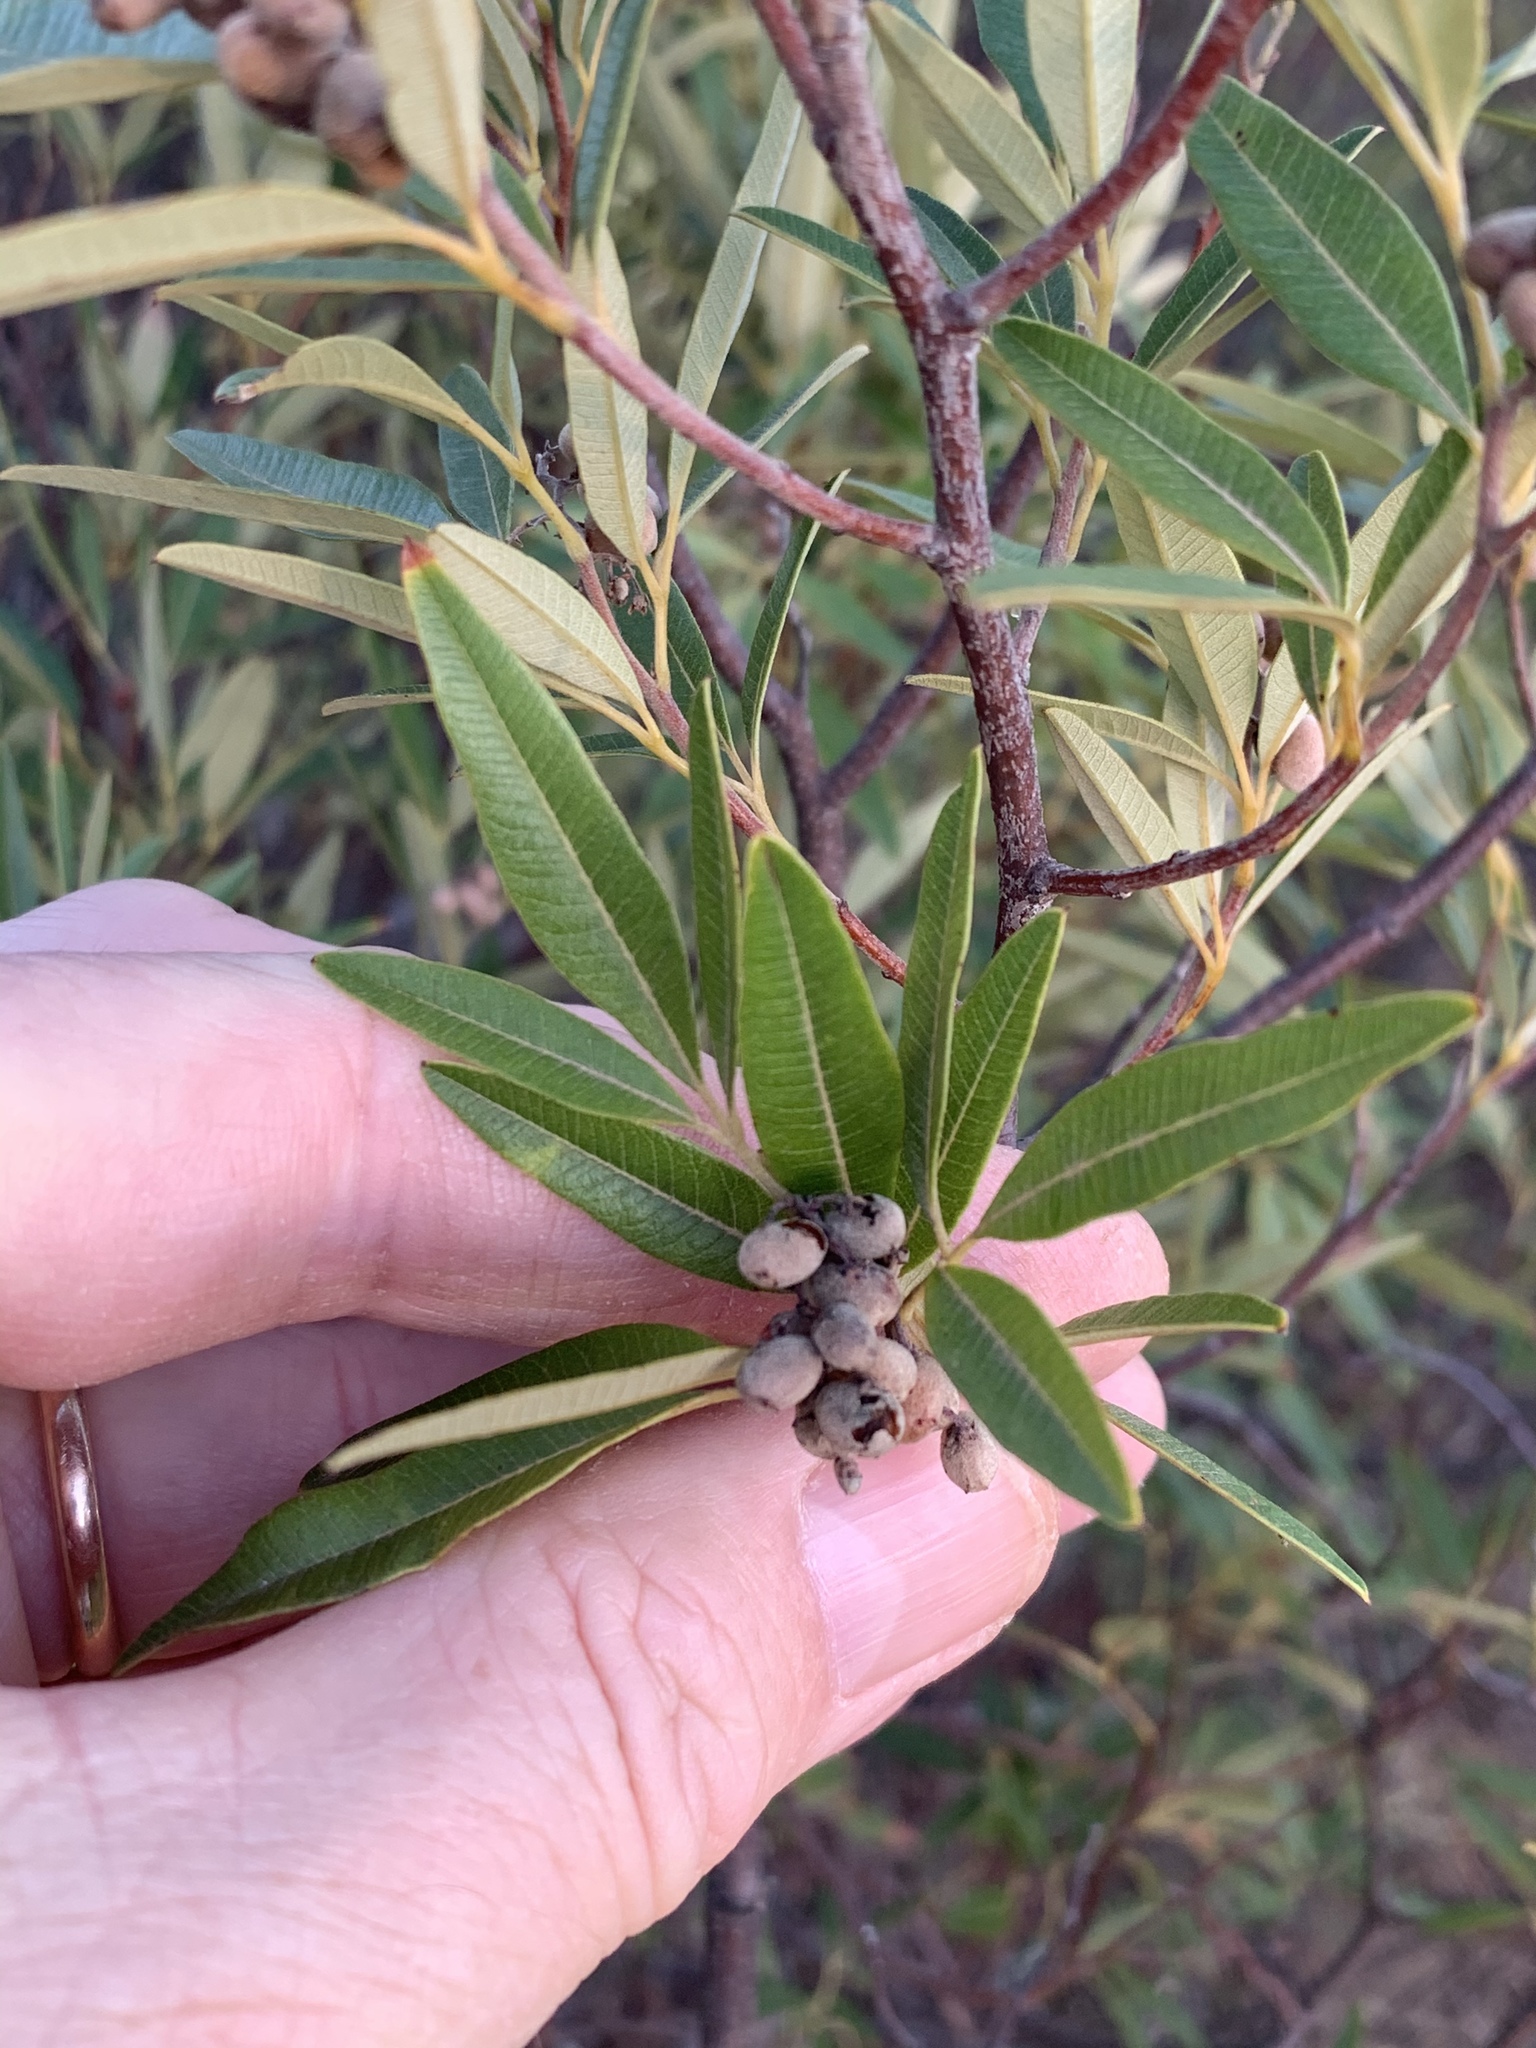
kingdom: Plantae
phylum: Tracheophyta
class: Magnoliopsida
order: Sapindales
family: Anacardiaceae
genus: Searsia
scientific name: Searsia angustifolia
